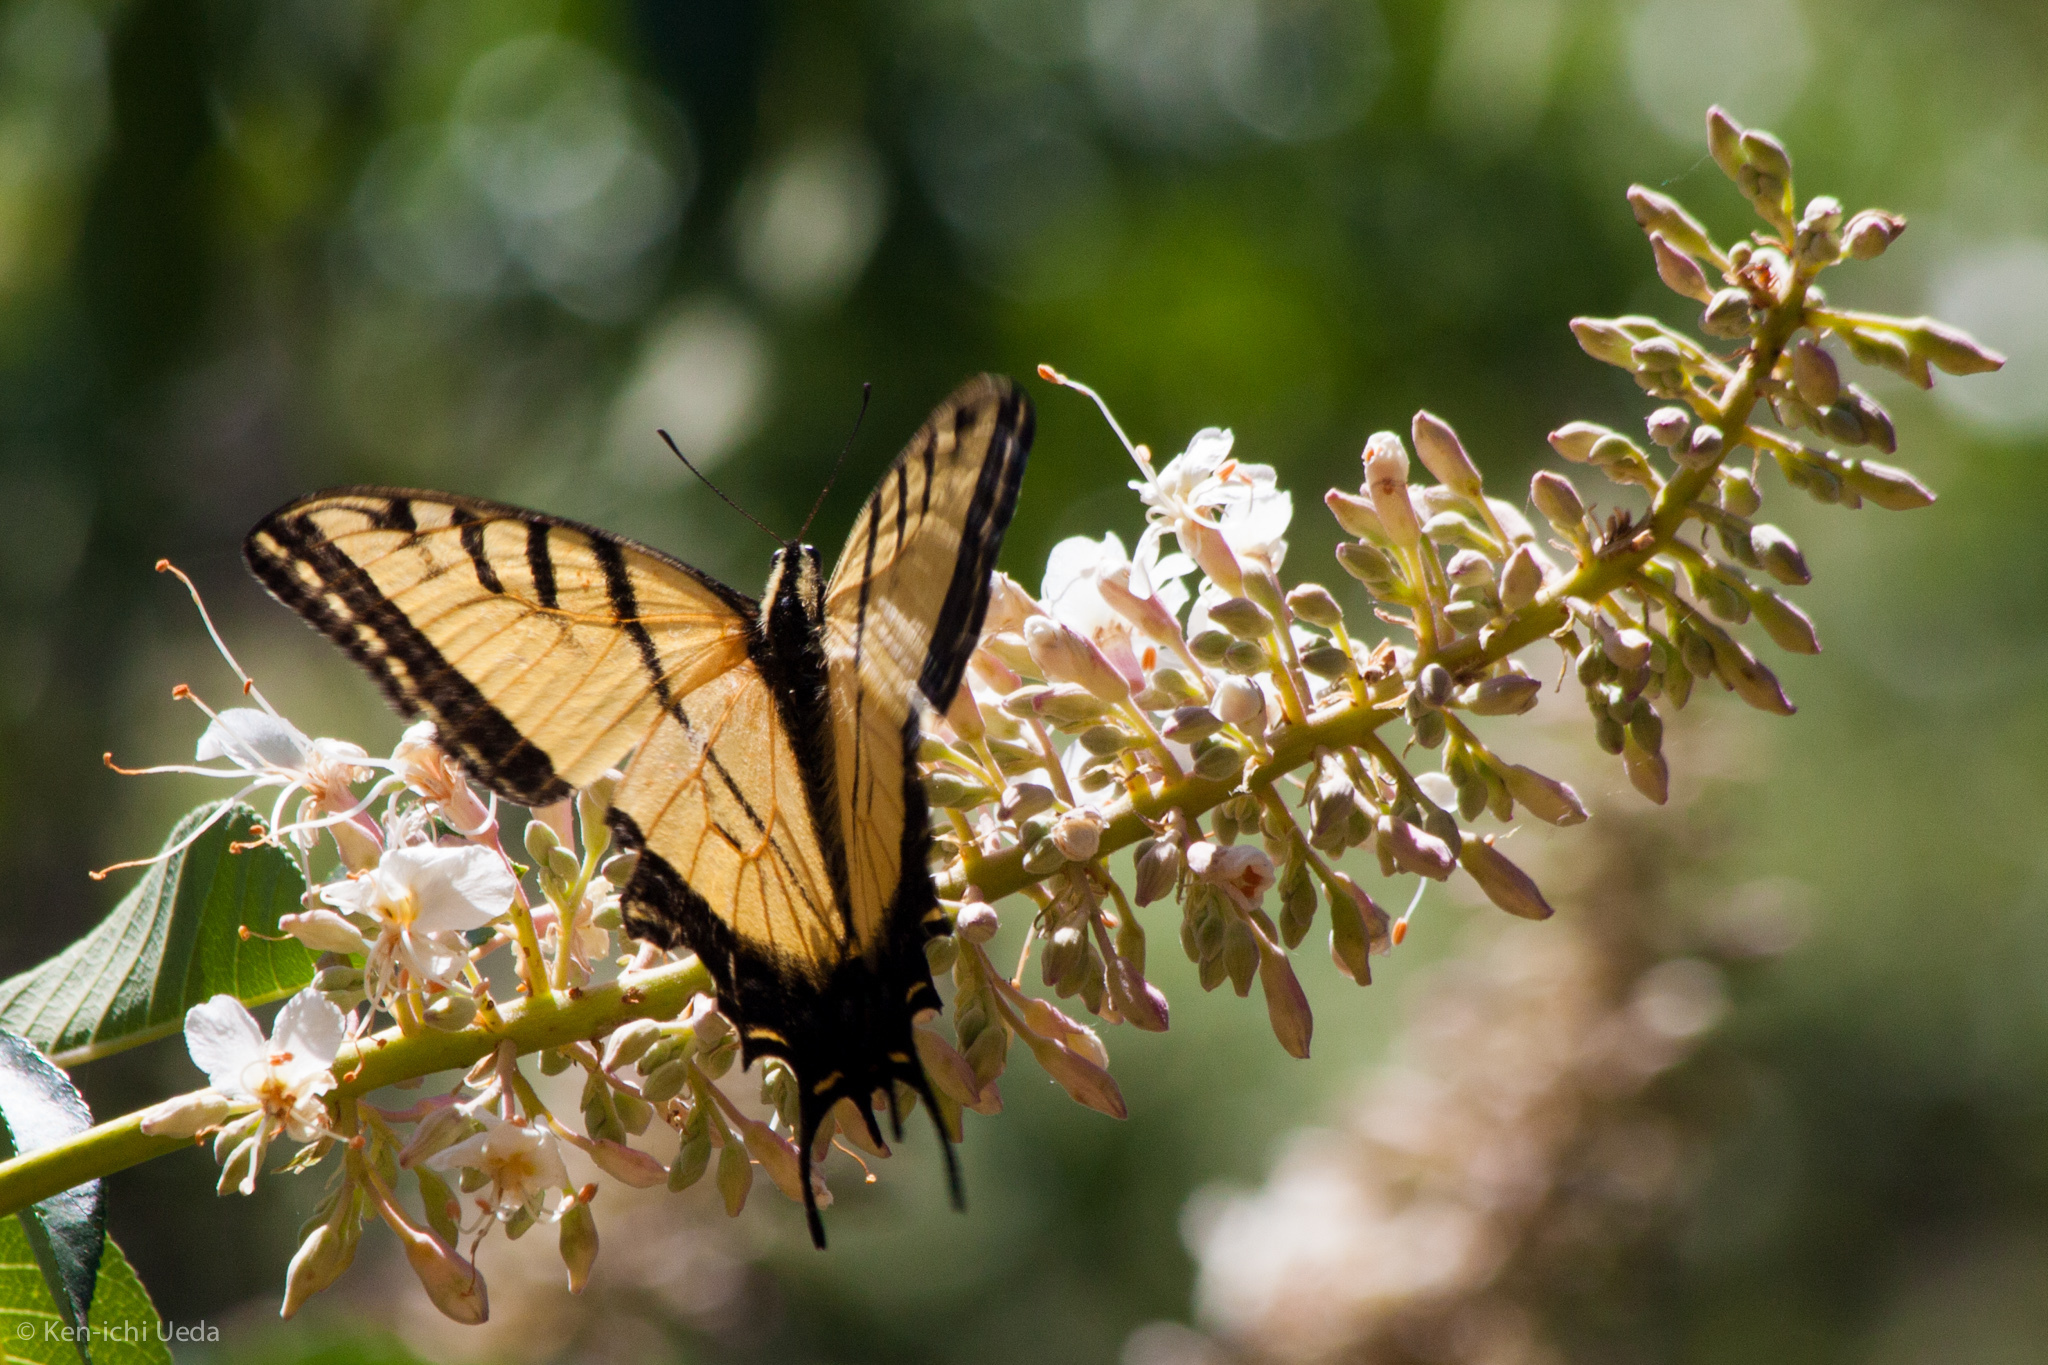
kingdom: Animalia
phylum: Arthropoda
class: Insecta
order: Lepidoptera
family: Papilionidae
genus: Papilio
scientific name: Papilio multicaudata
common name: Two-tailed tiger swallowtail
